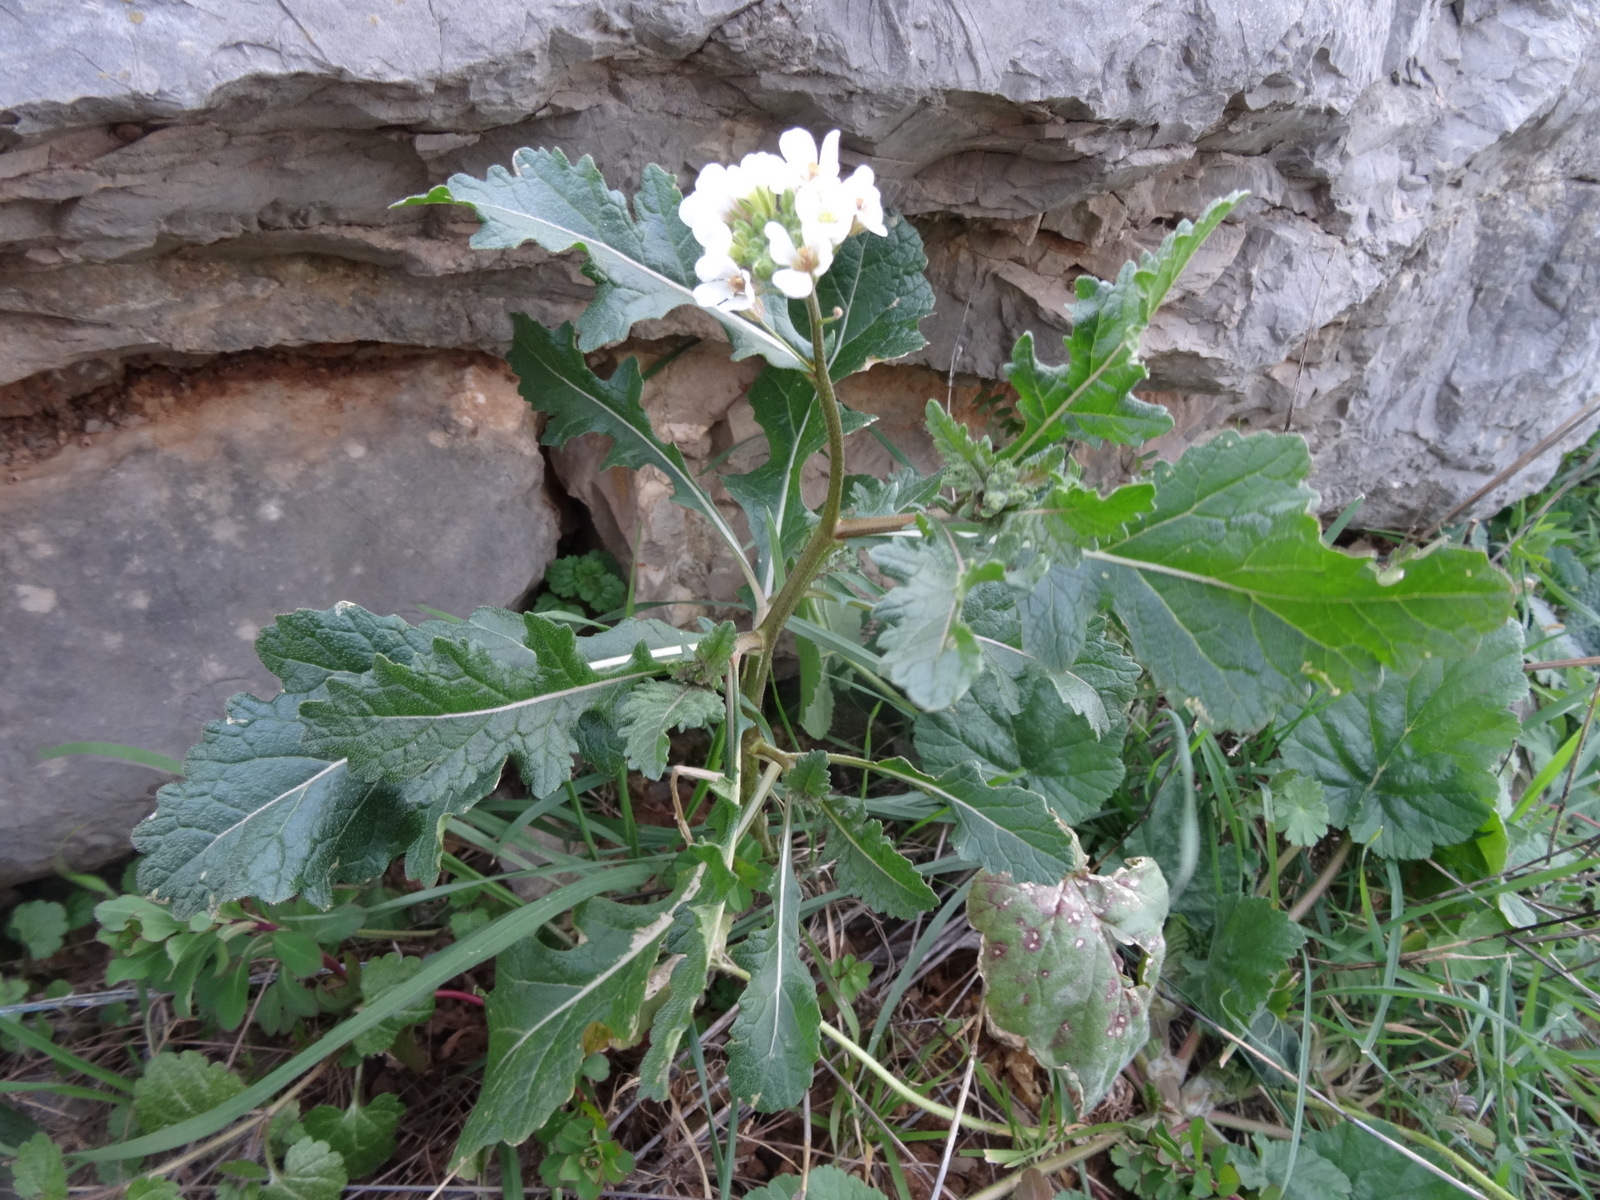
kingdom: Plantae
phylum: Tracheophyta
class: Magnoliopsida
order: Brassicales
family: Brassicaceae
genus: Diplotaxis
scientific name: Diplotaxis erucoides
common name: White rocket
